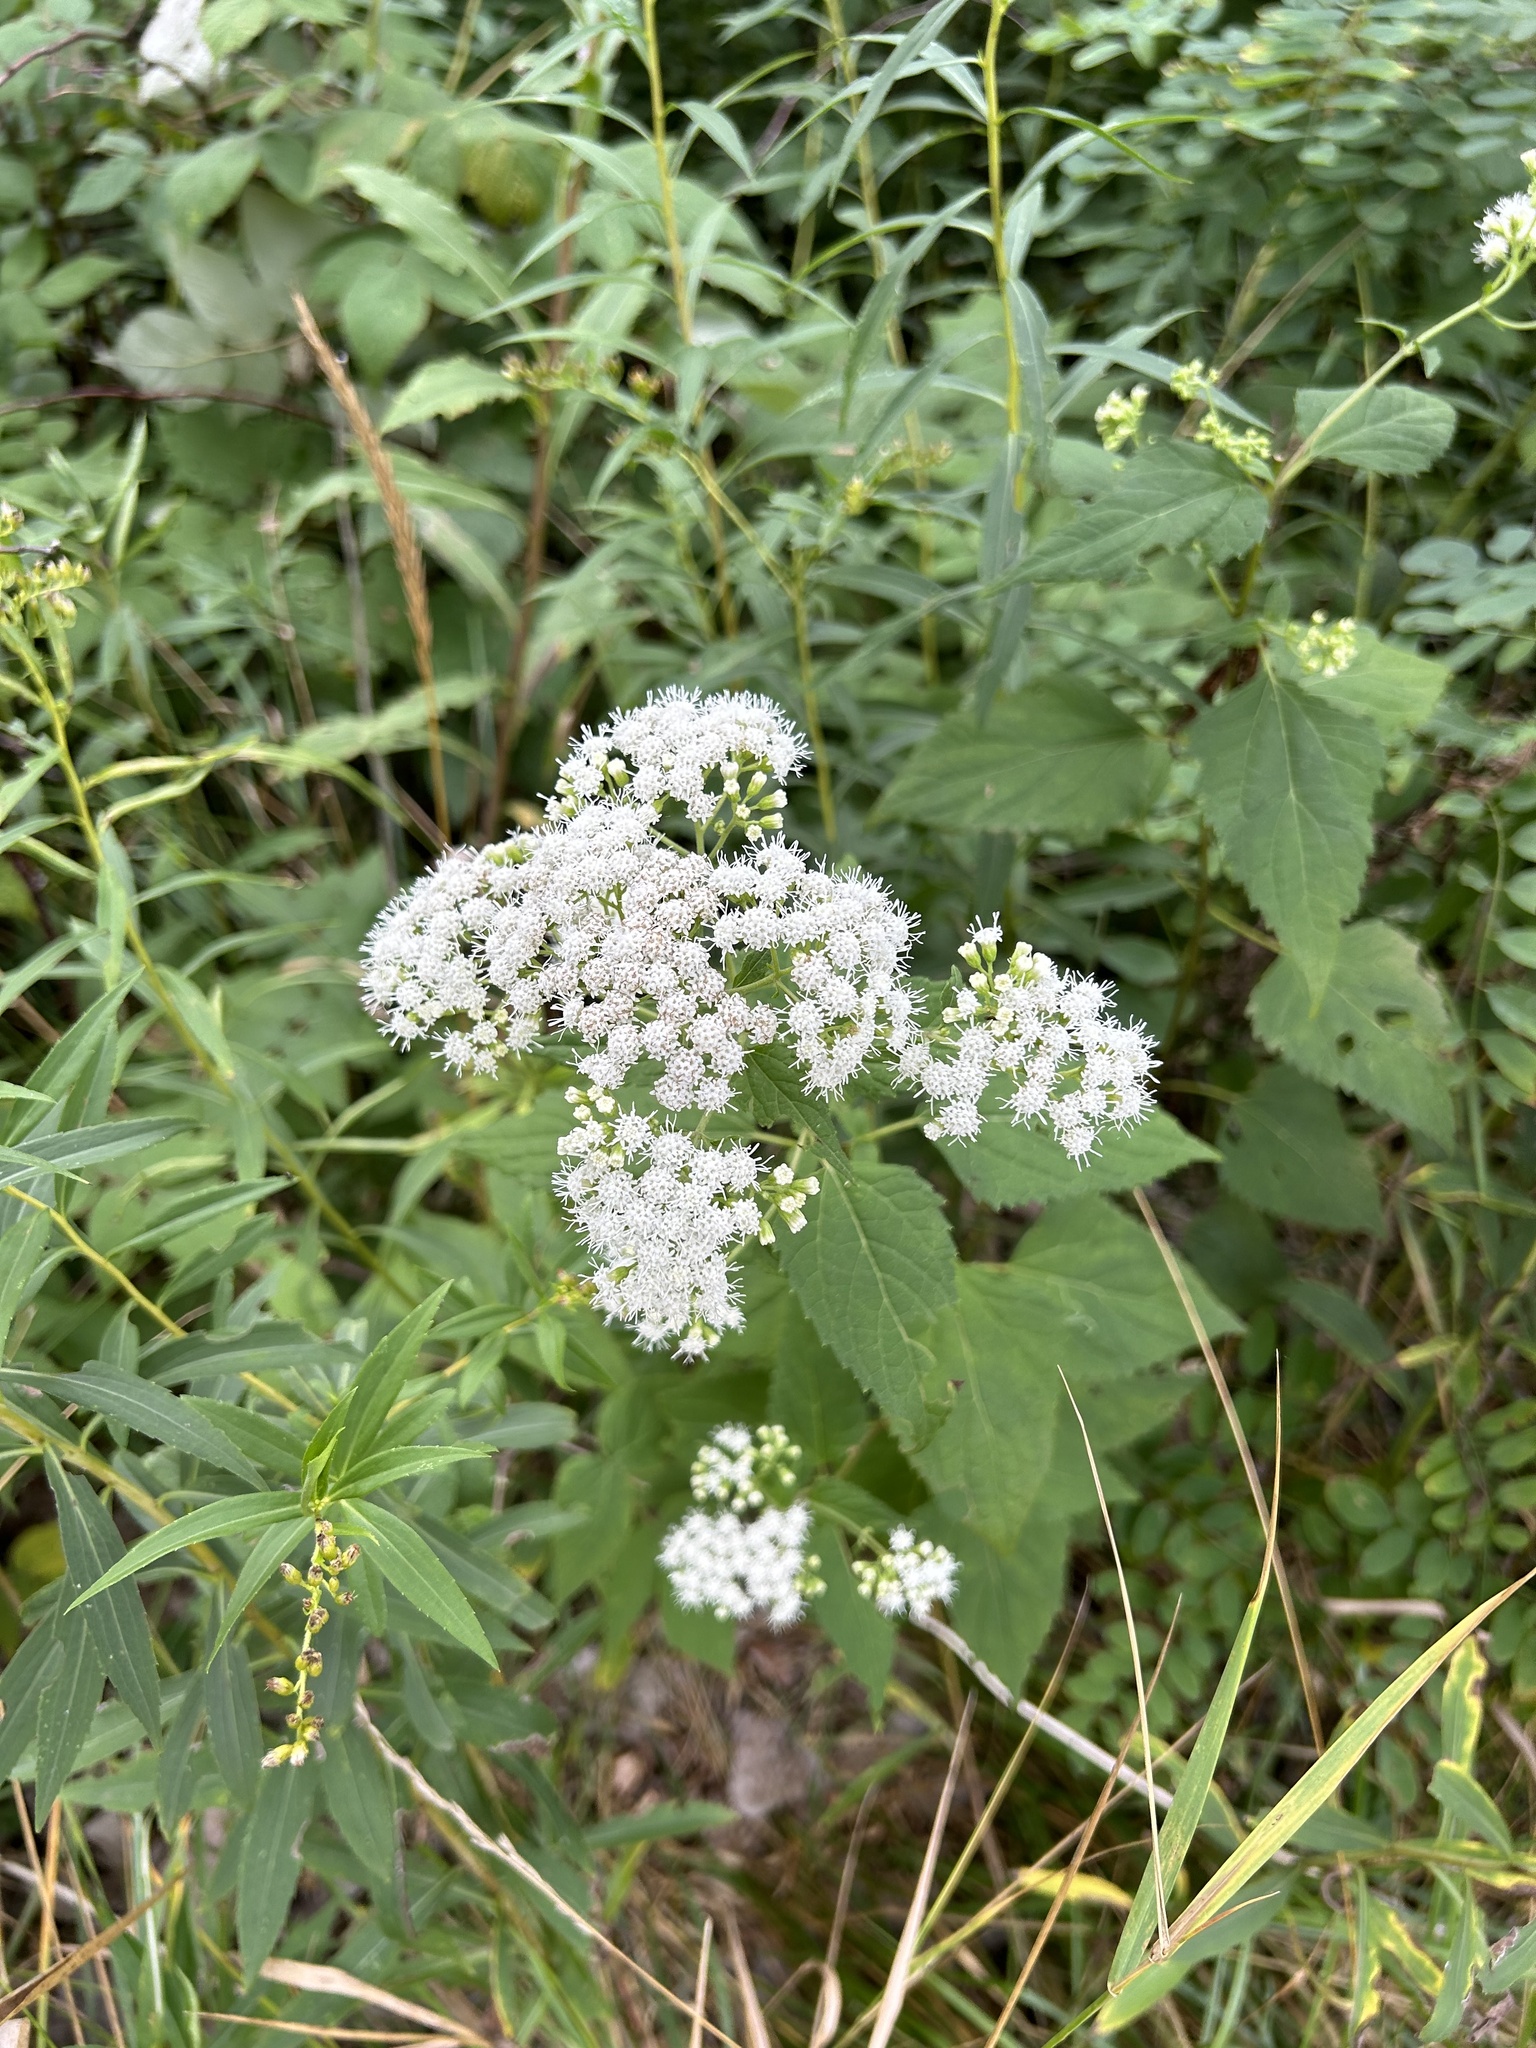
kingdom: Plantae
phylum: Tracheophyta
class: Magnoliopsida
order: Asterales
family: Asteraceae
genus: Ageratina
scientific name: Ageratina altissima
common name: White snakeroot
